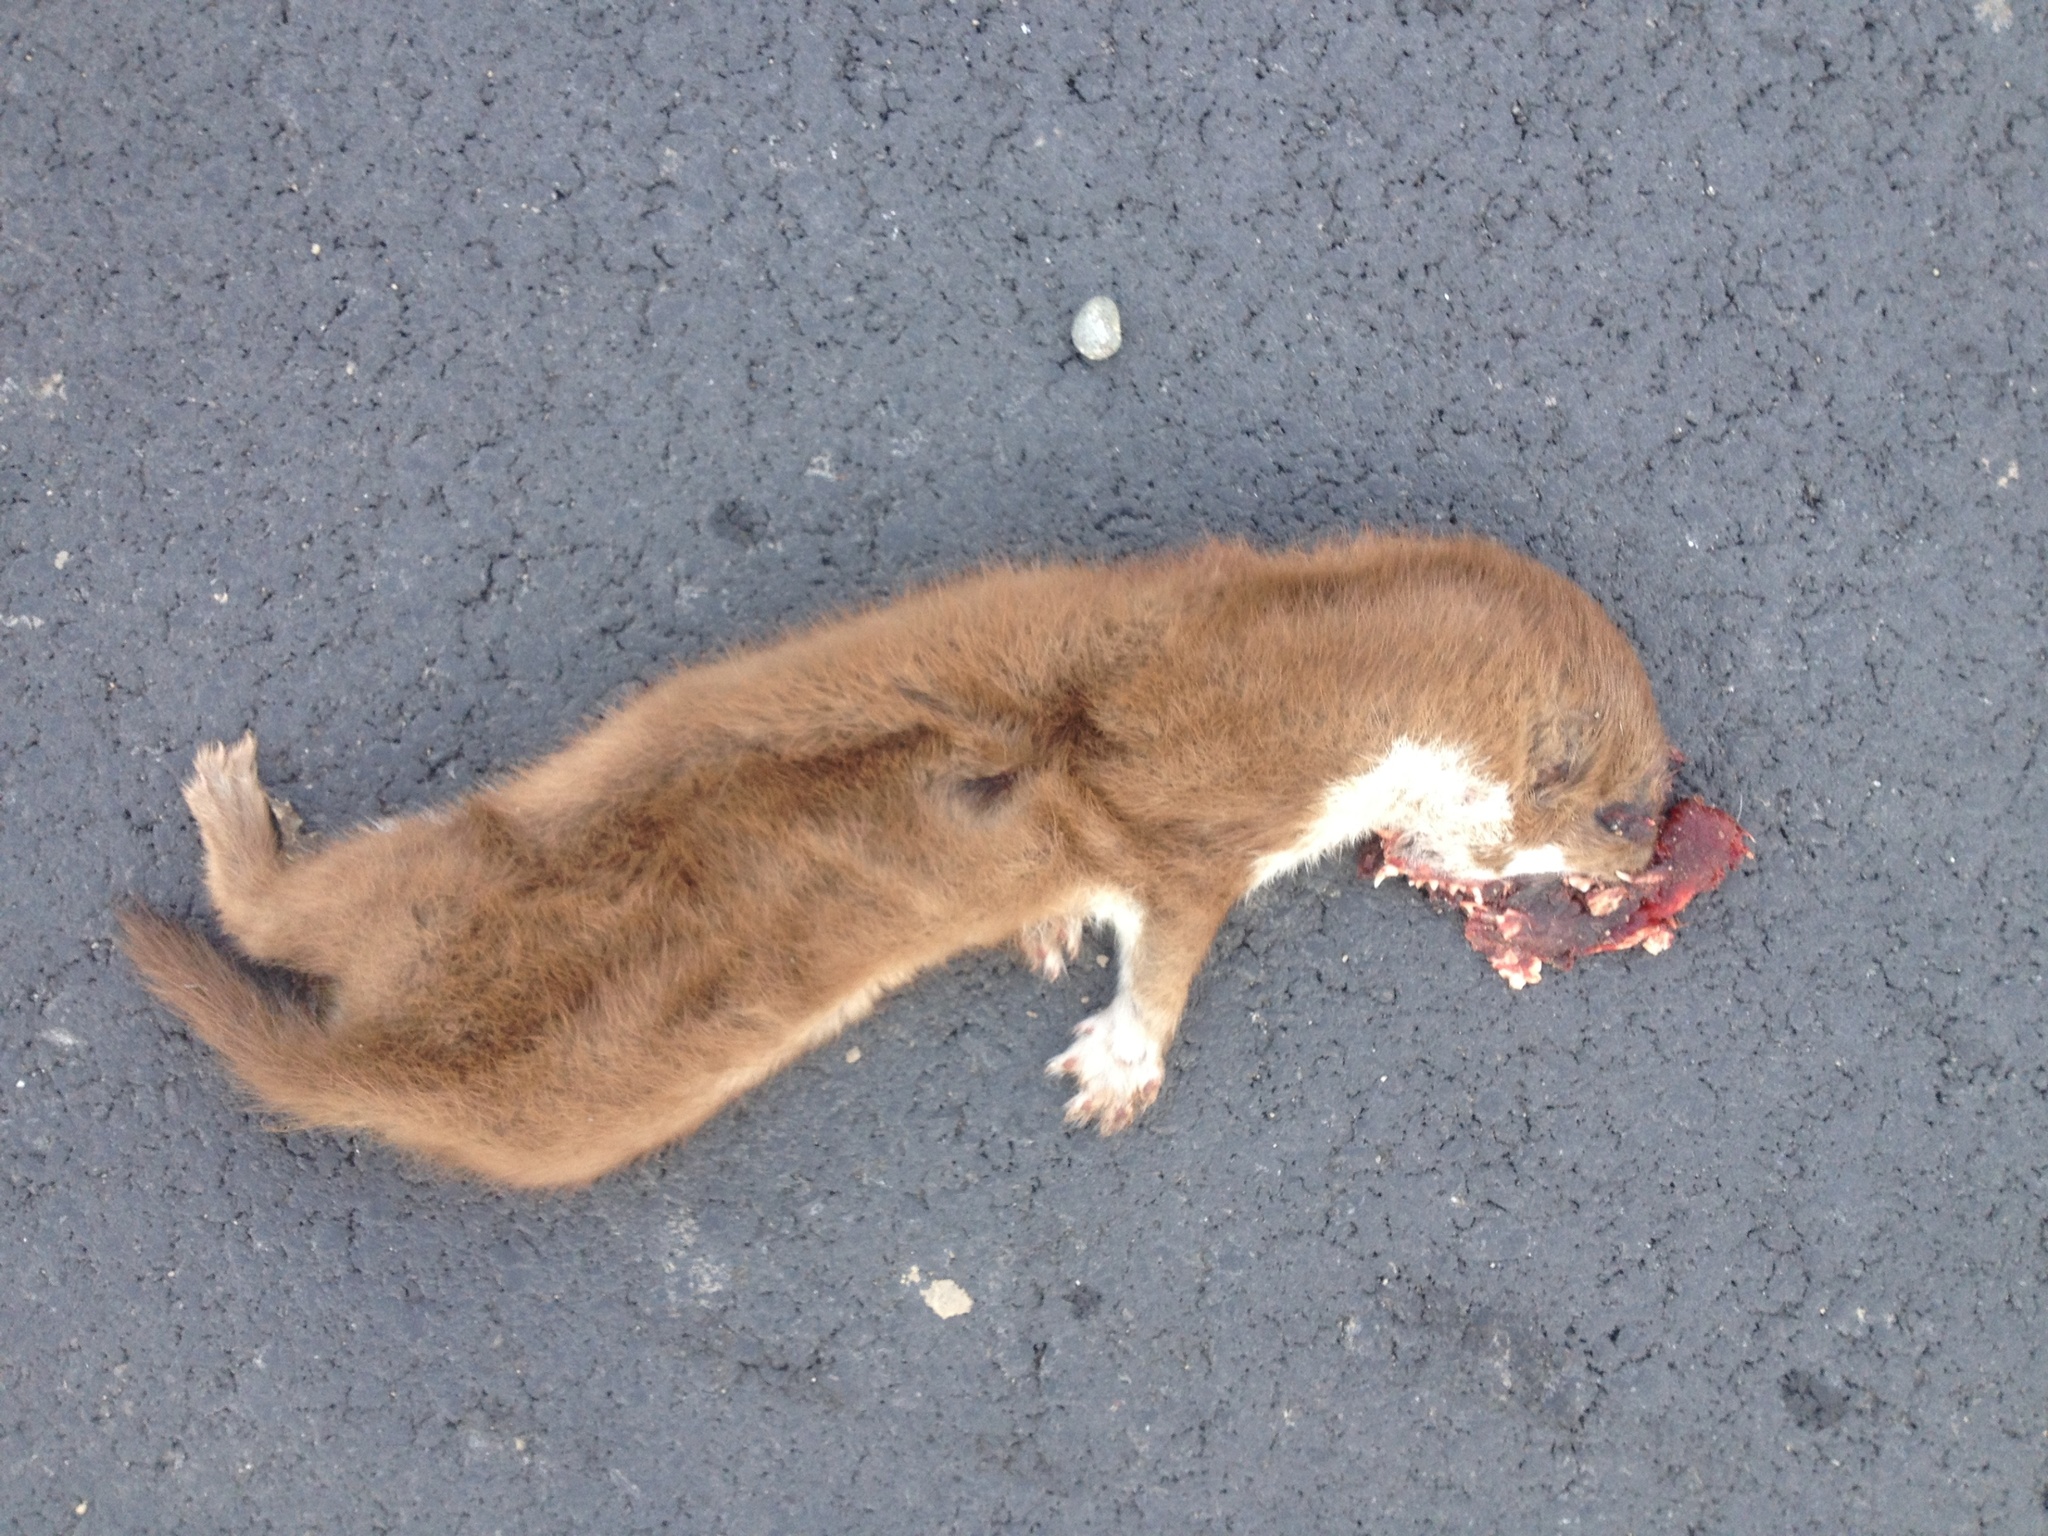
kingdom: Animalia
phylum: Chordata
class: Mammalia
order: Carnivora
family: Mustelidae
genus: Mustela
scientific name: Mustela nivalis
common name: Least weasel
